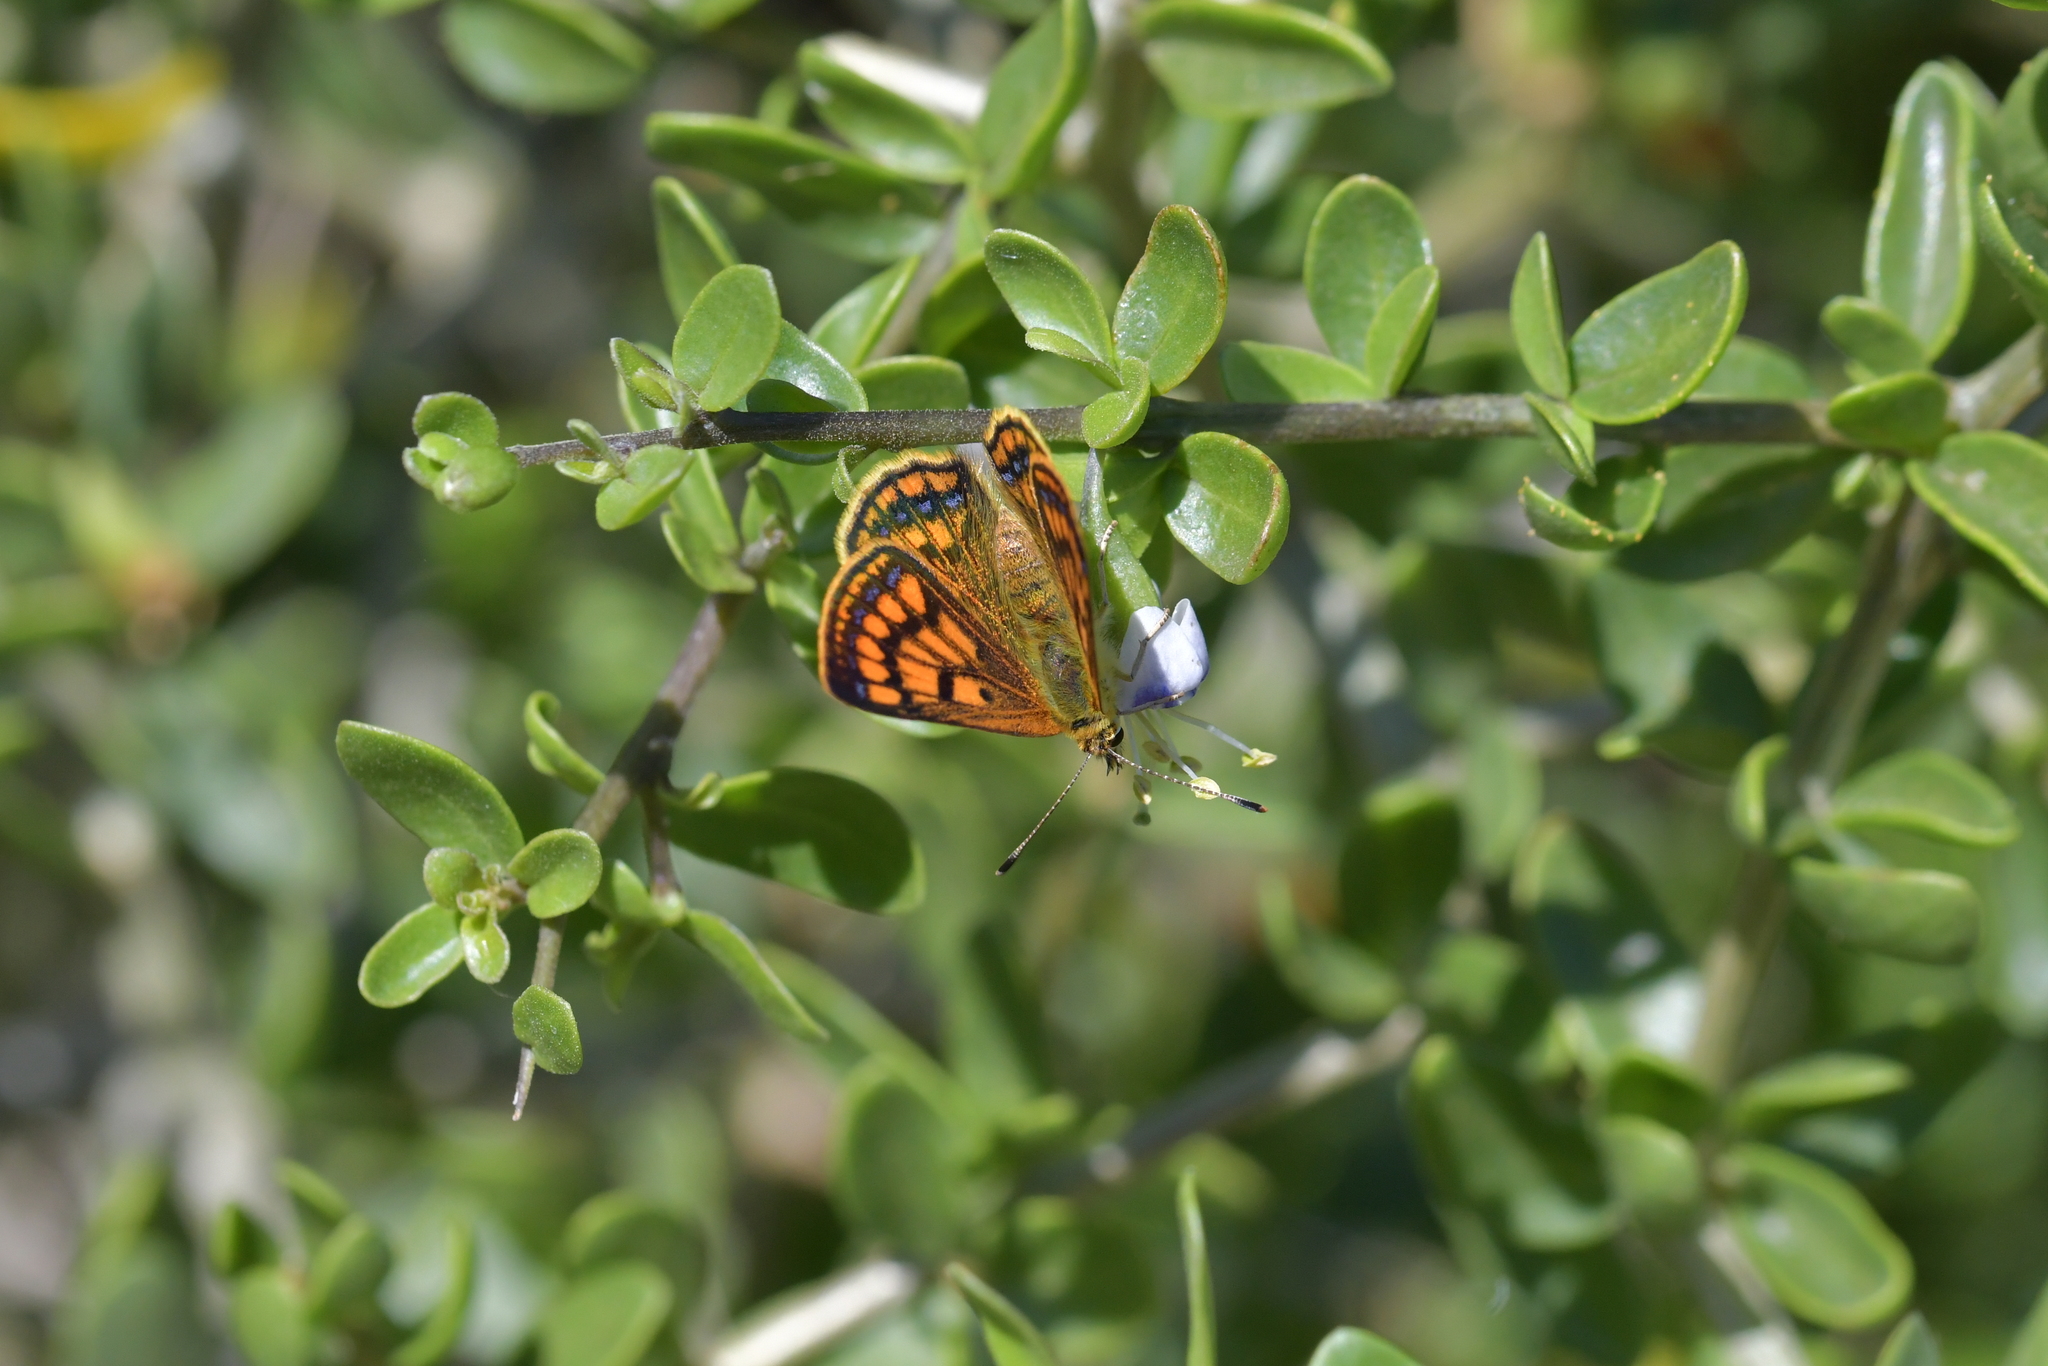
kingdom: Plantae
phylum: Tracheophyta
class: Magnoliopsida
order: Solanales
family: Solanaceae
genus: Lycium
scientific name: Lycium ferocissimum
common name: African boxthorn
